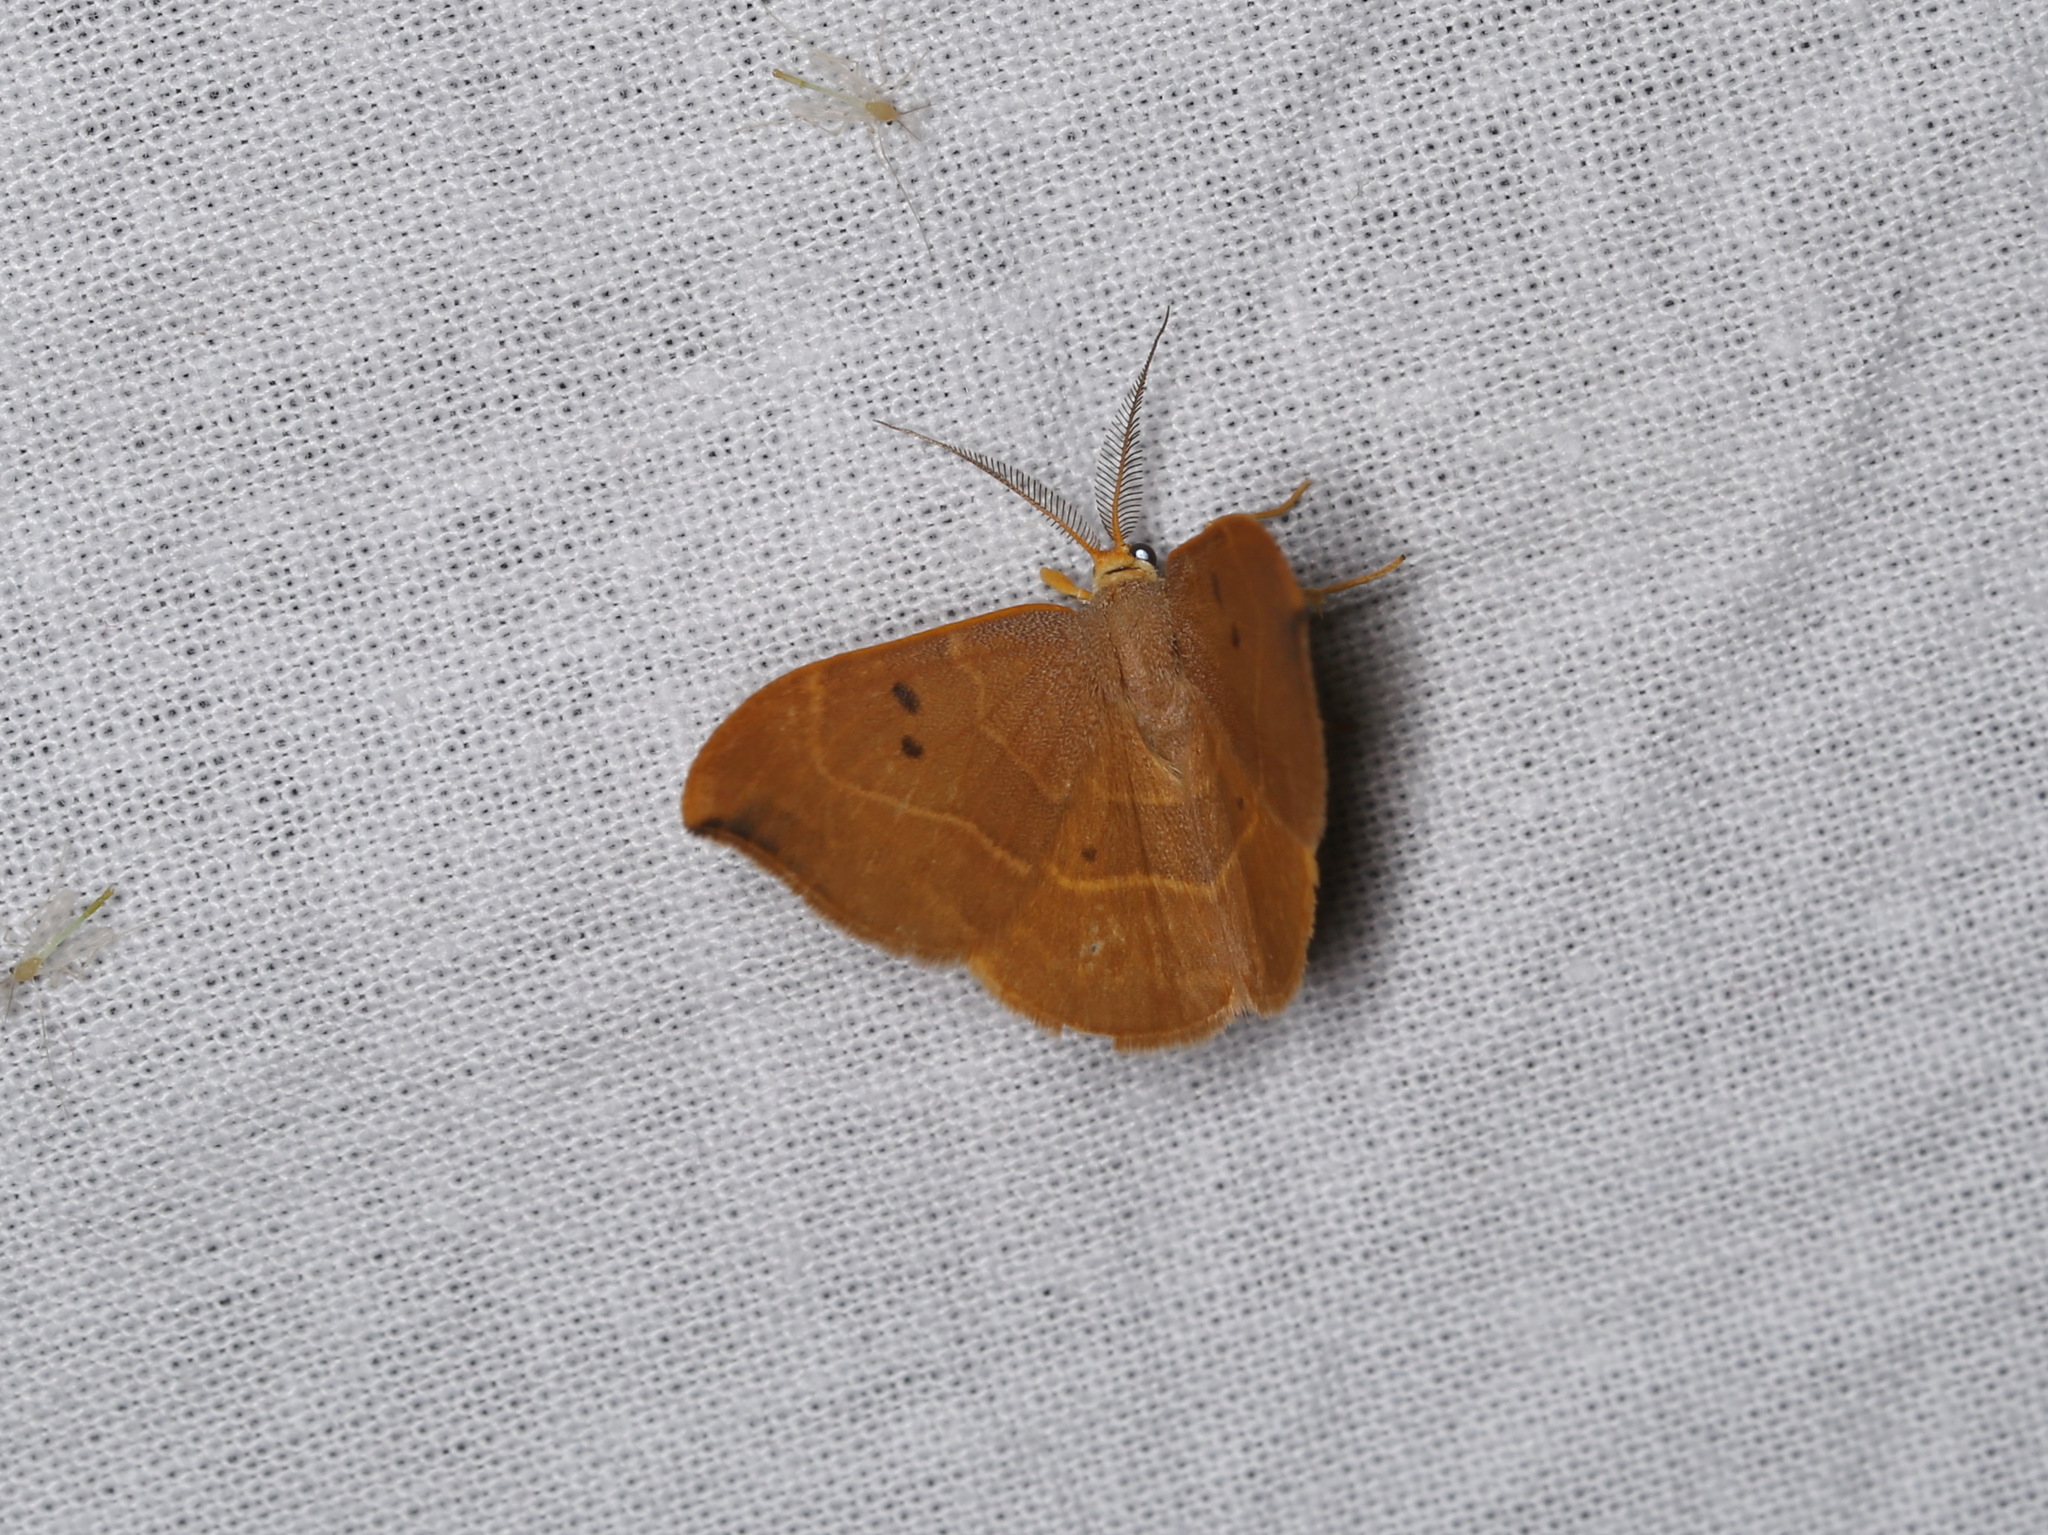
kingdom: Animalia
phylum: Arthropoda
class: Insecta
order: Lepidoptera
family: Drepanidae
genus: Watsonalla
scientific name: Watsonalla binaria
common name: Oak hook-tip
